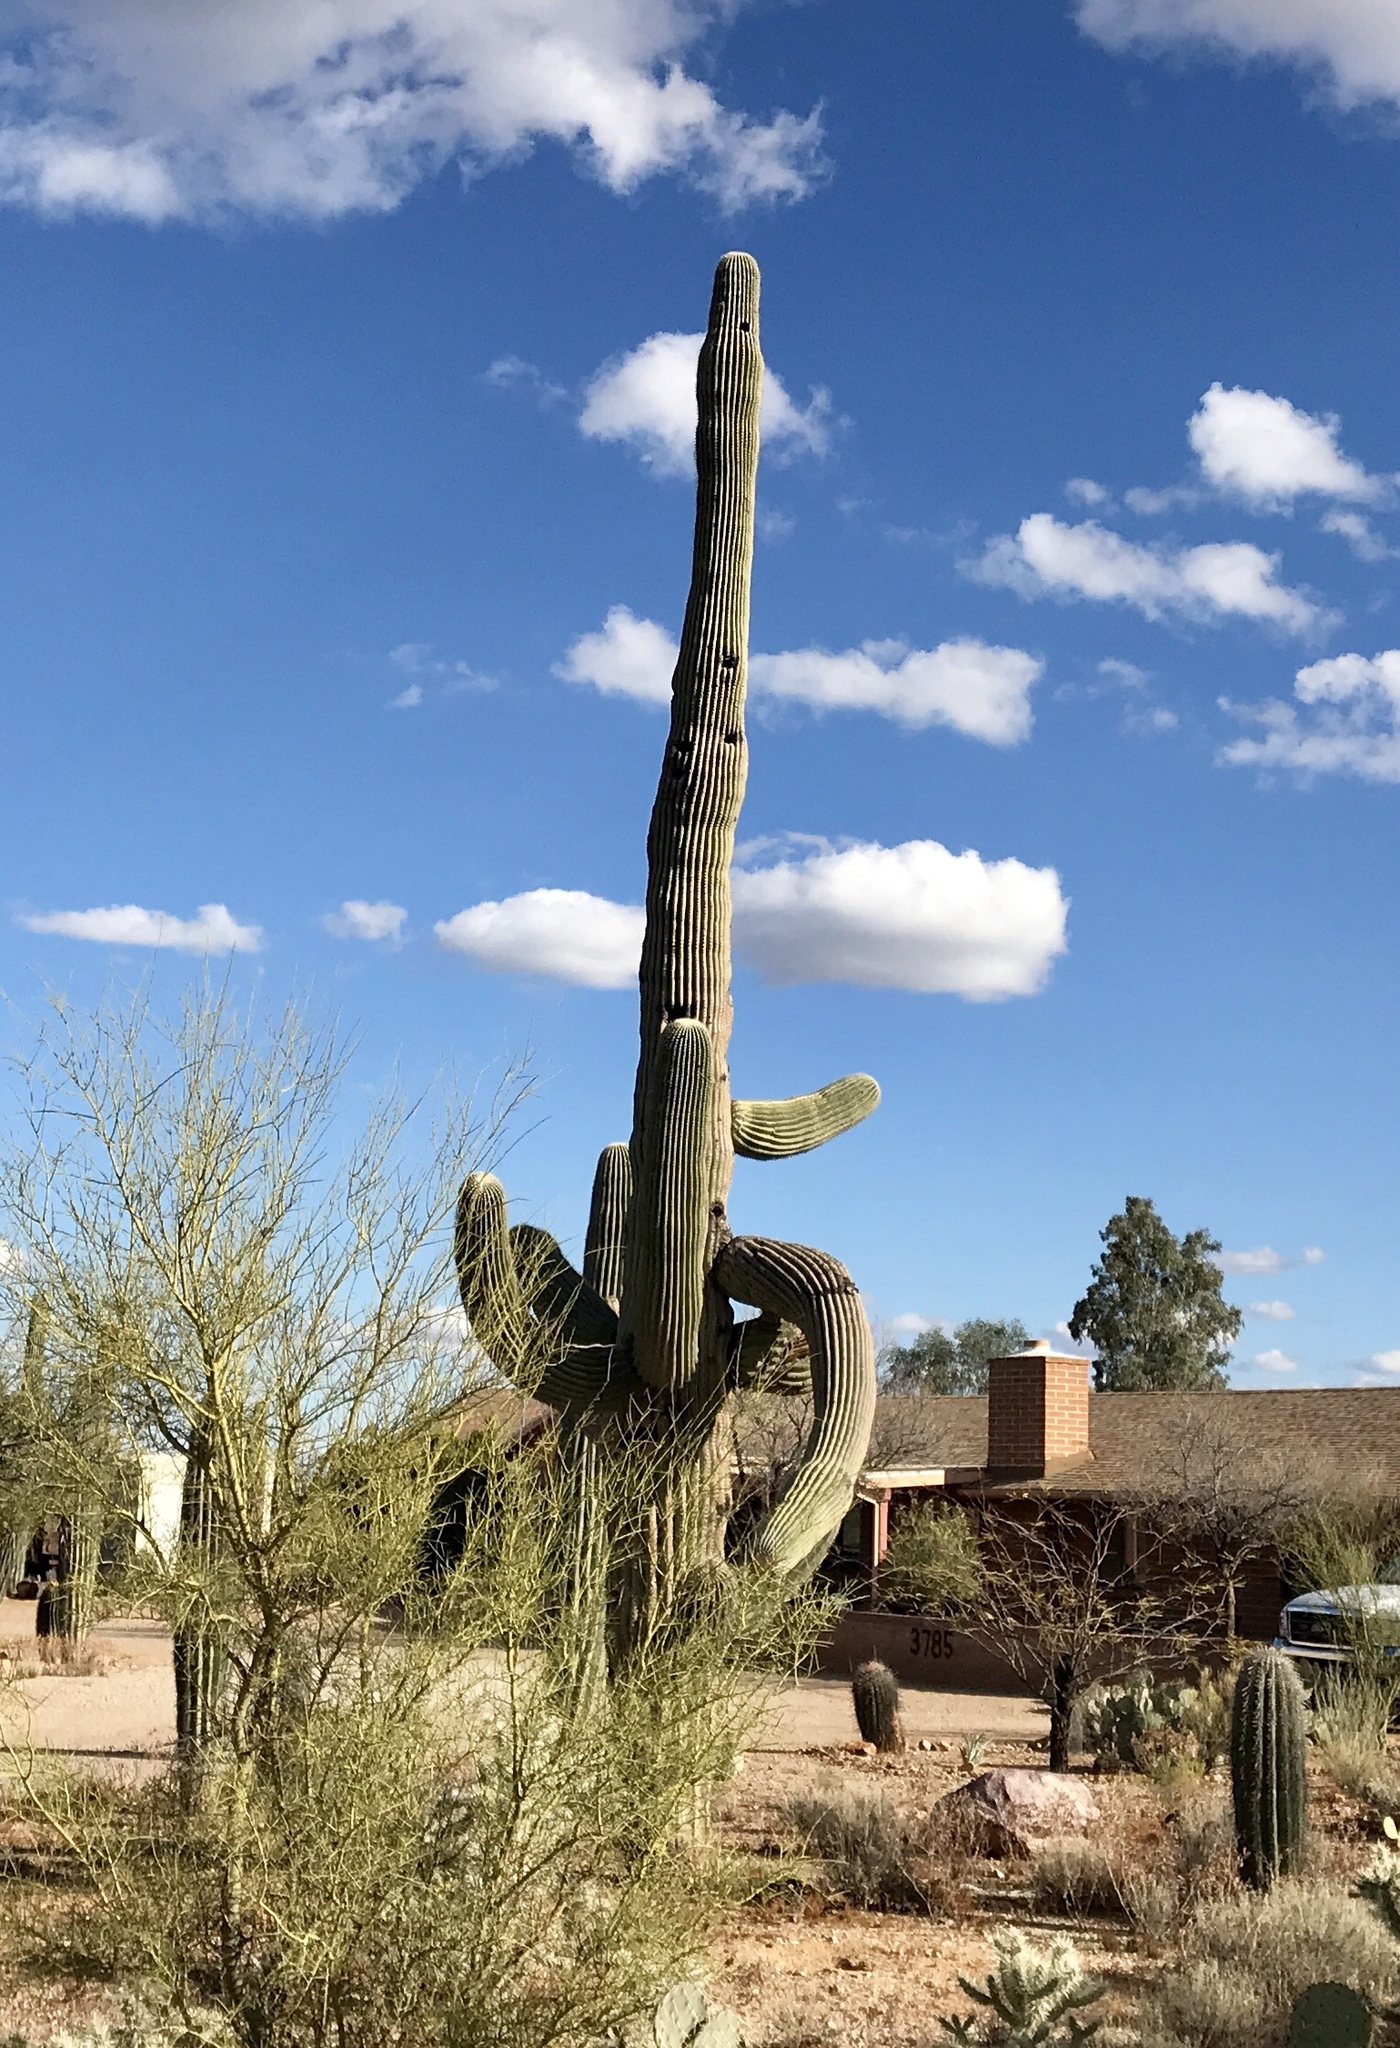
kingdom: Plantae
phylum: Tracheophyta
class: Magnoliopsida
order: Caryophyllales
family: Cactaceae
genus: Carnegiea
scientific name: Carnegiea gigantea
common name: Saguaro
